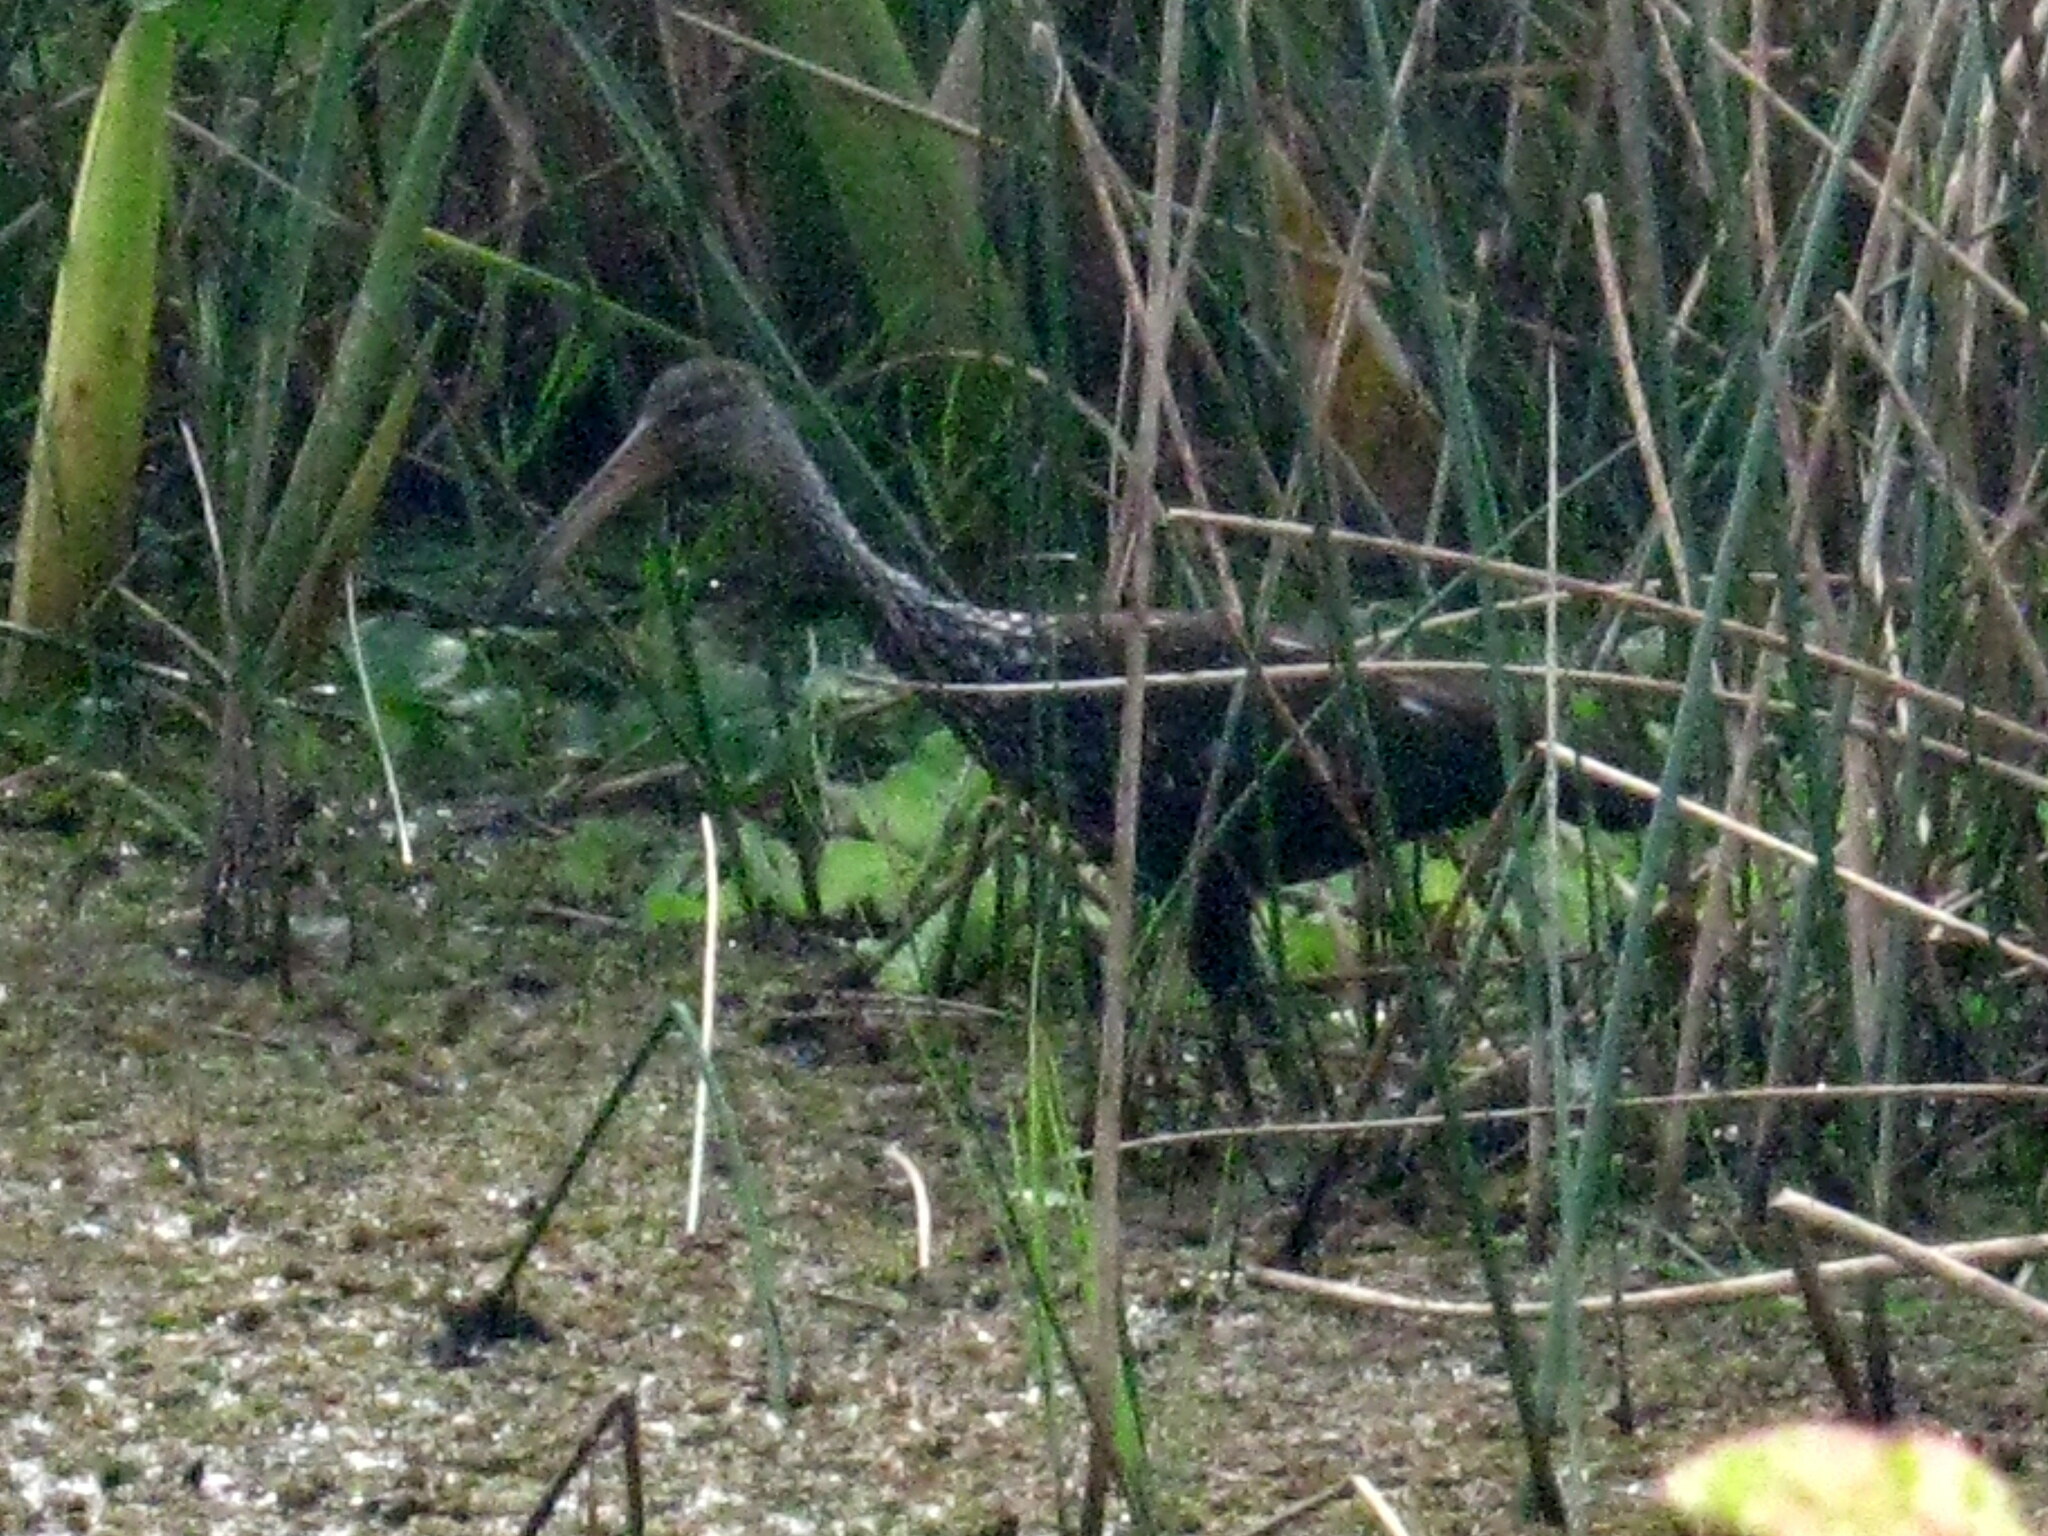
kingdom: Animalia
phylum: Chordata
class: Aves
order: Gruiformes
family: Aramidae
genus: Aramus
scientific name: Aramus guarauna
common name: Limpkin
